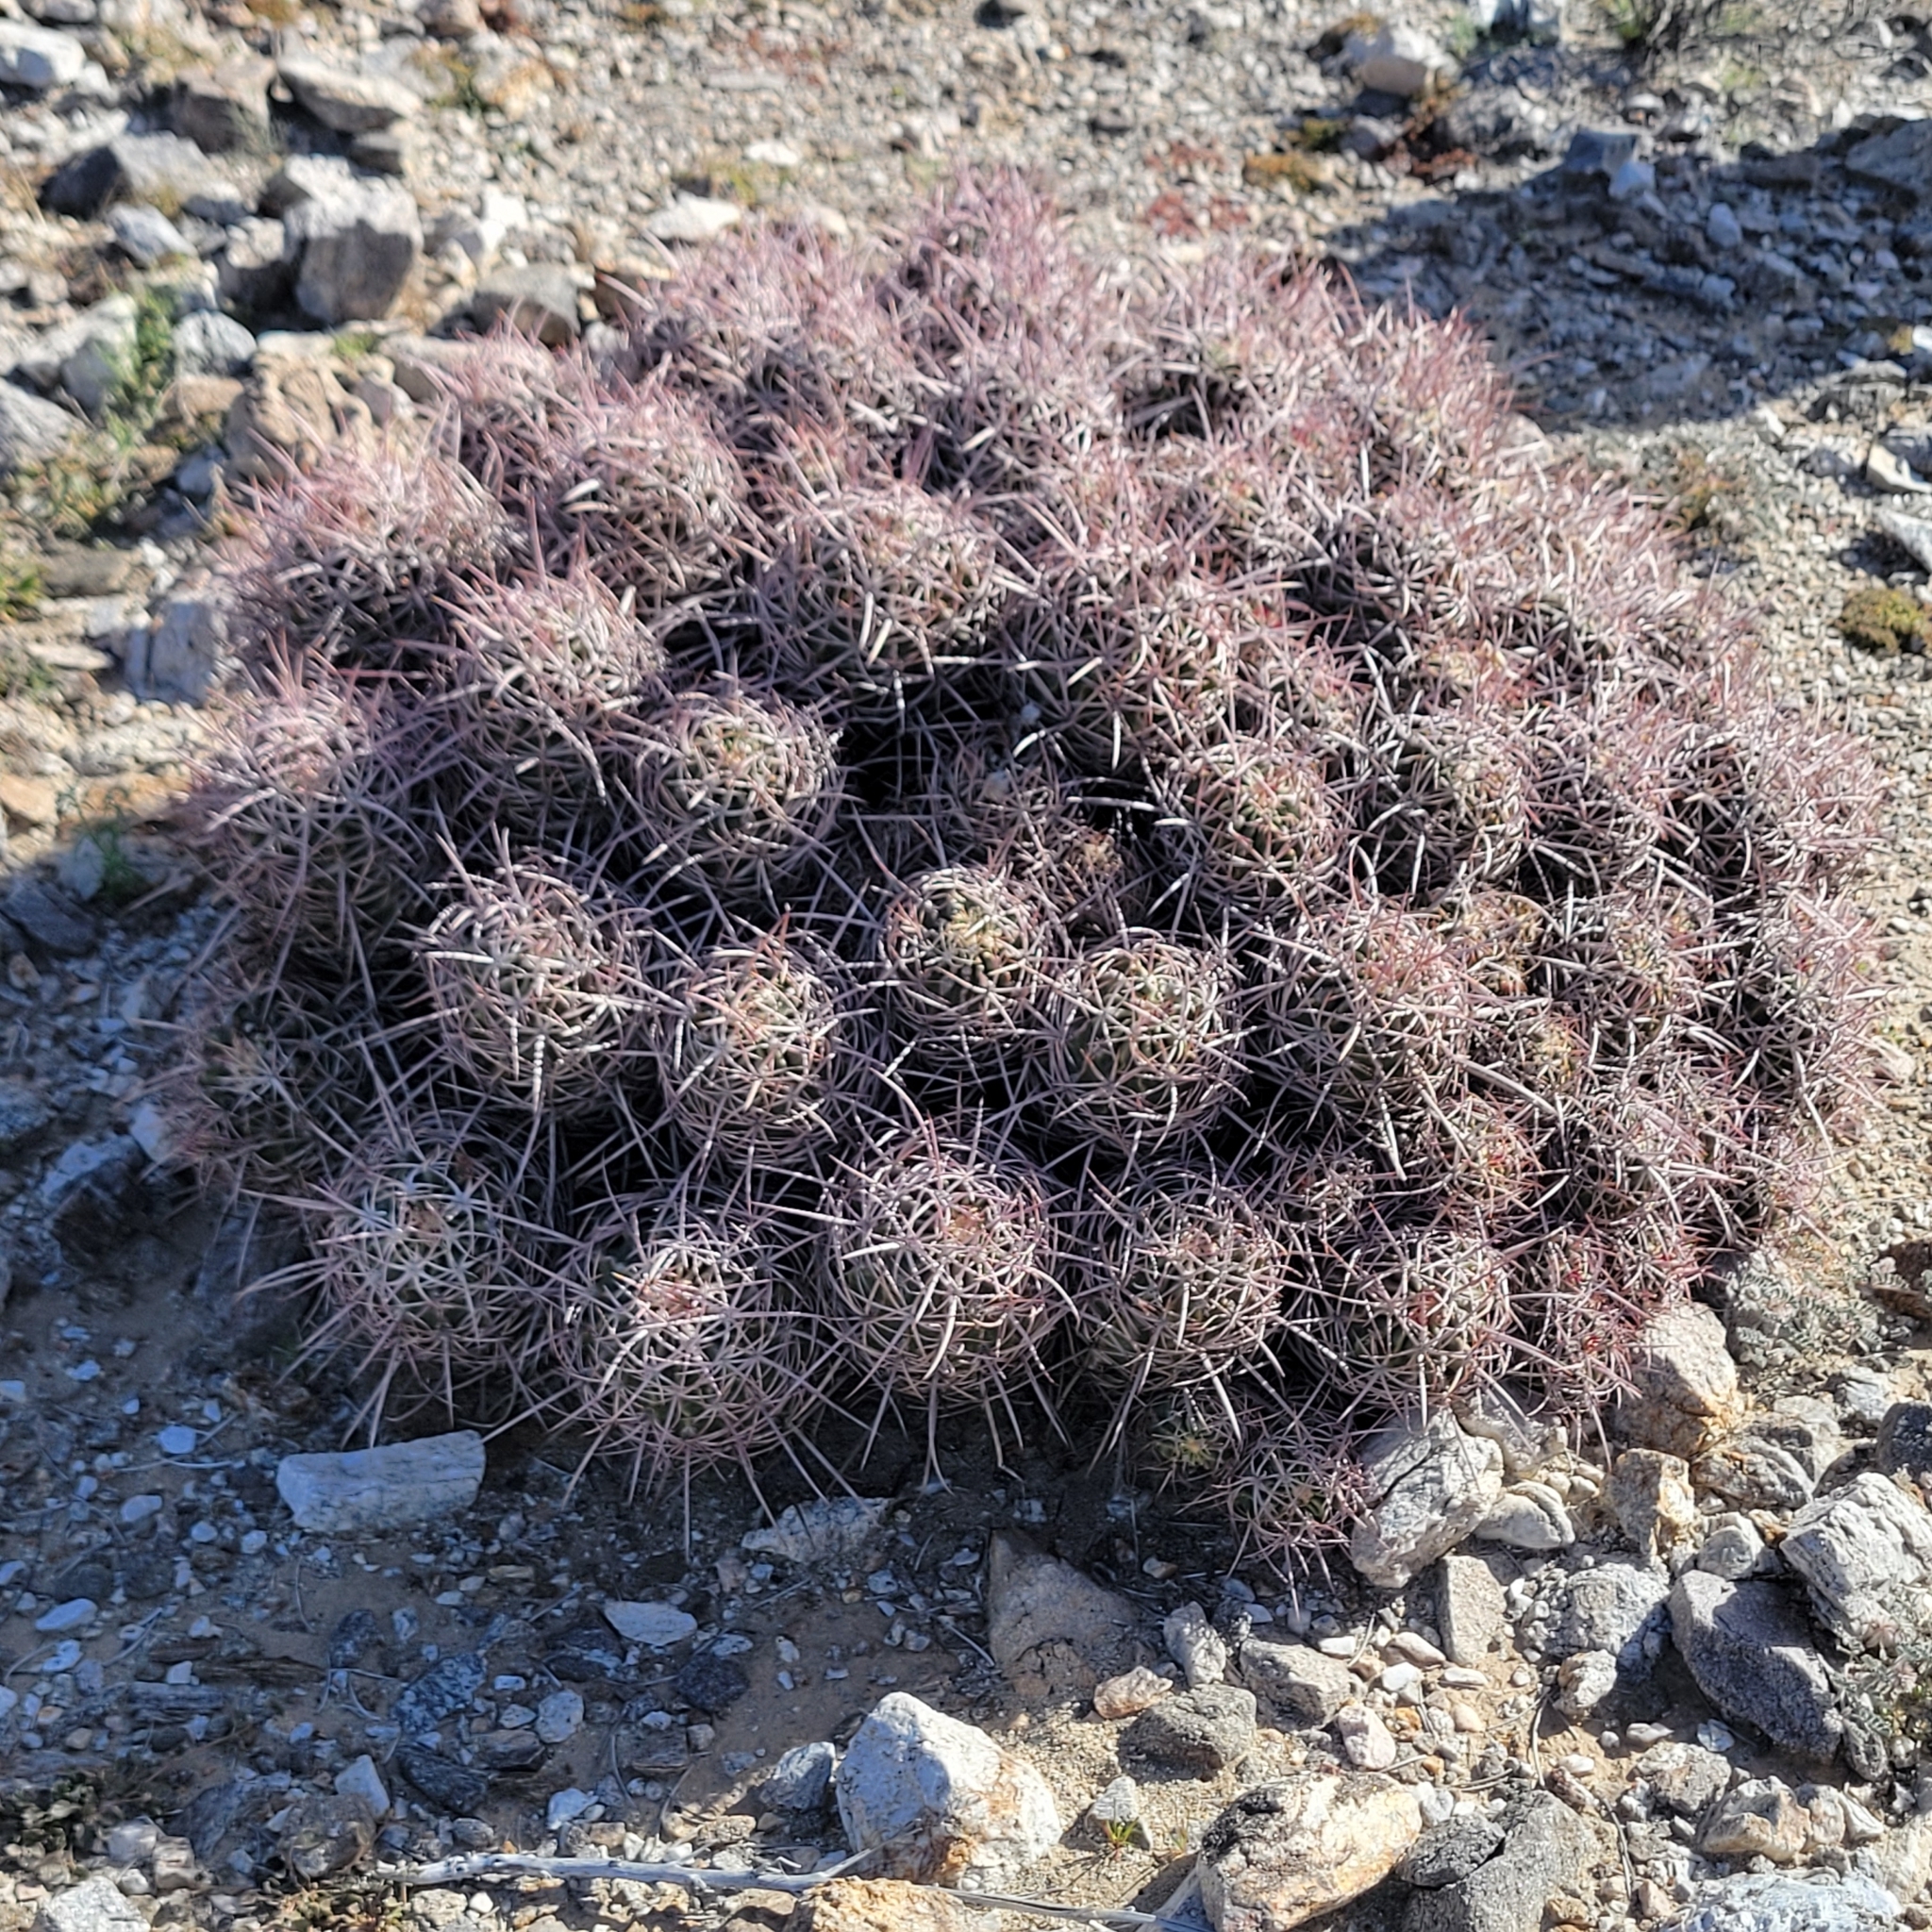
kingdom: Plantae
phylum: Tracheophyta
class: Magnoliopsida
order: Caryophyllales
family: Cactaceae
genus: Echinocactus
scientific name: Echinocactus polycephalus
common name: Cottontop cactus
